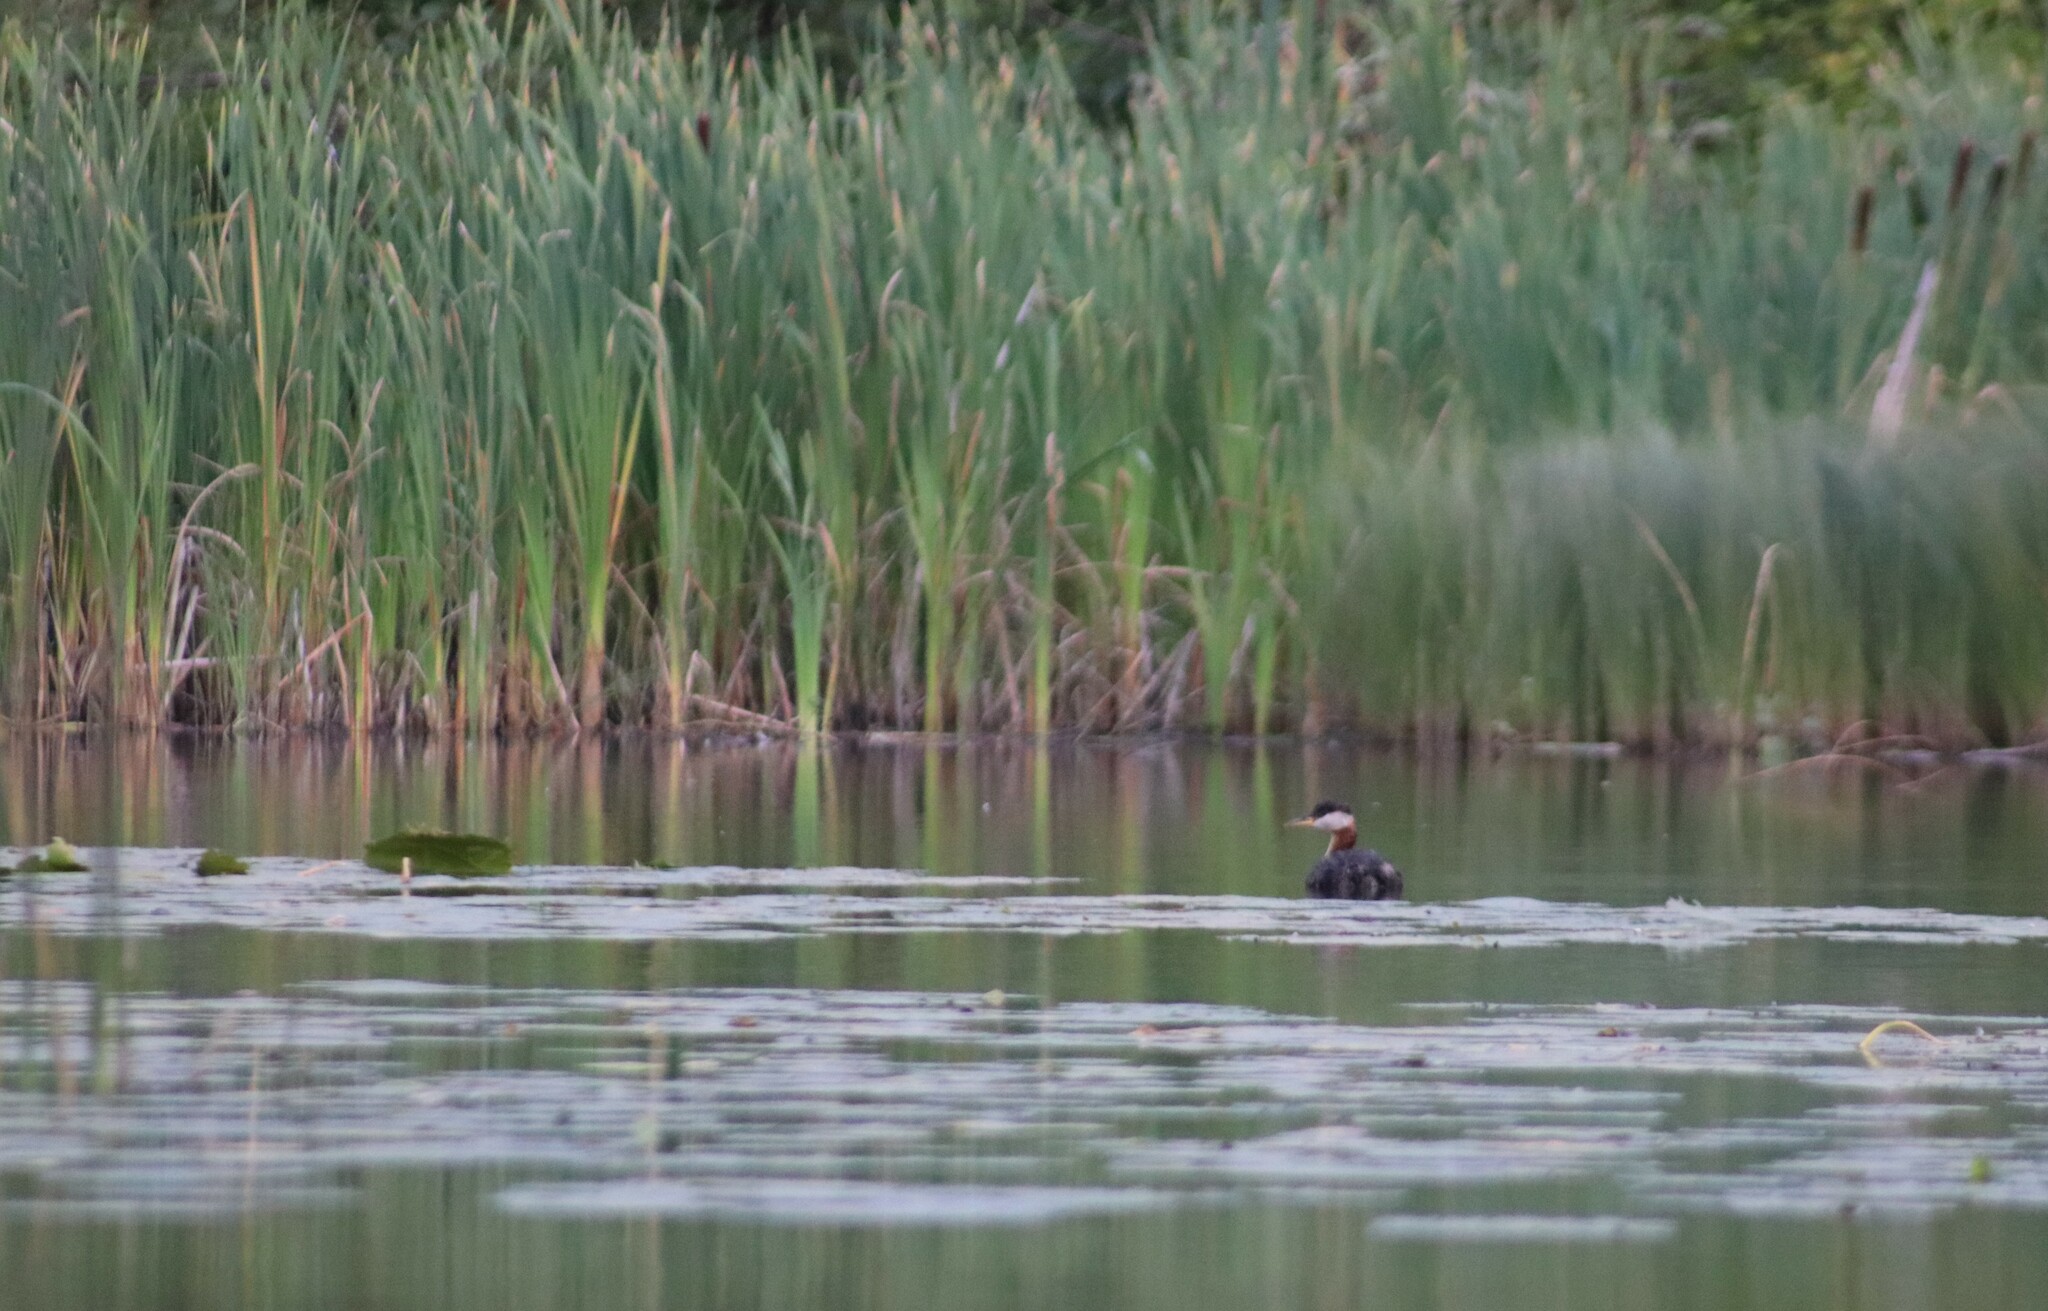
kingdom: Animalia
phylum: Chordata
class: Aves
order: Podicipediformes
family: Podicipedidae
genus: Podiceps
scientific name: Podiceps grisegena
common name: Red-necked grebe
